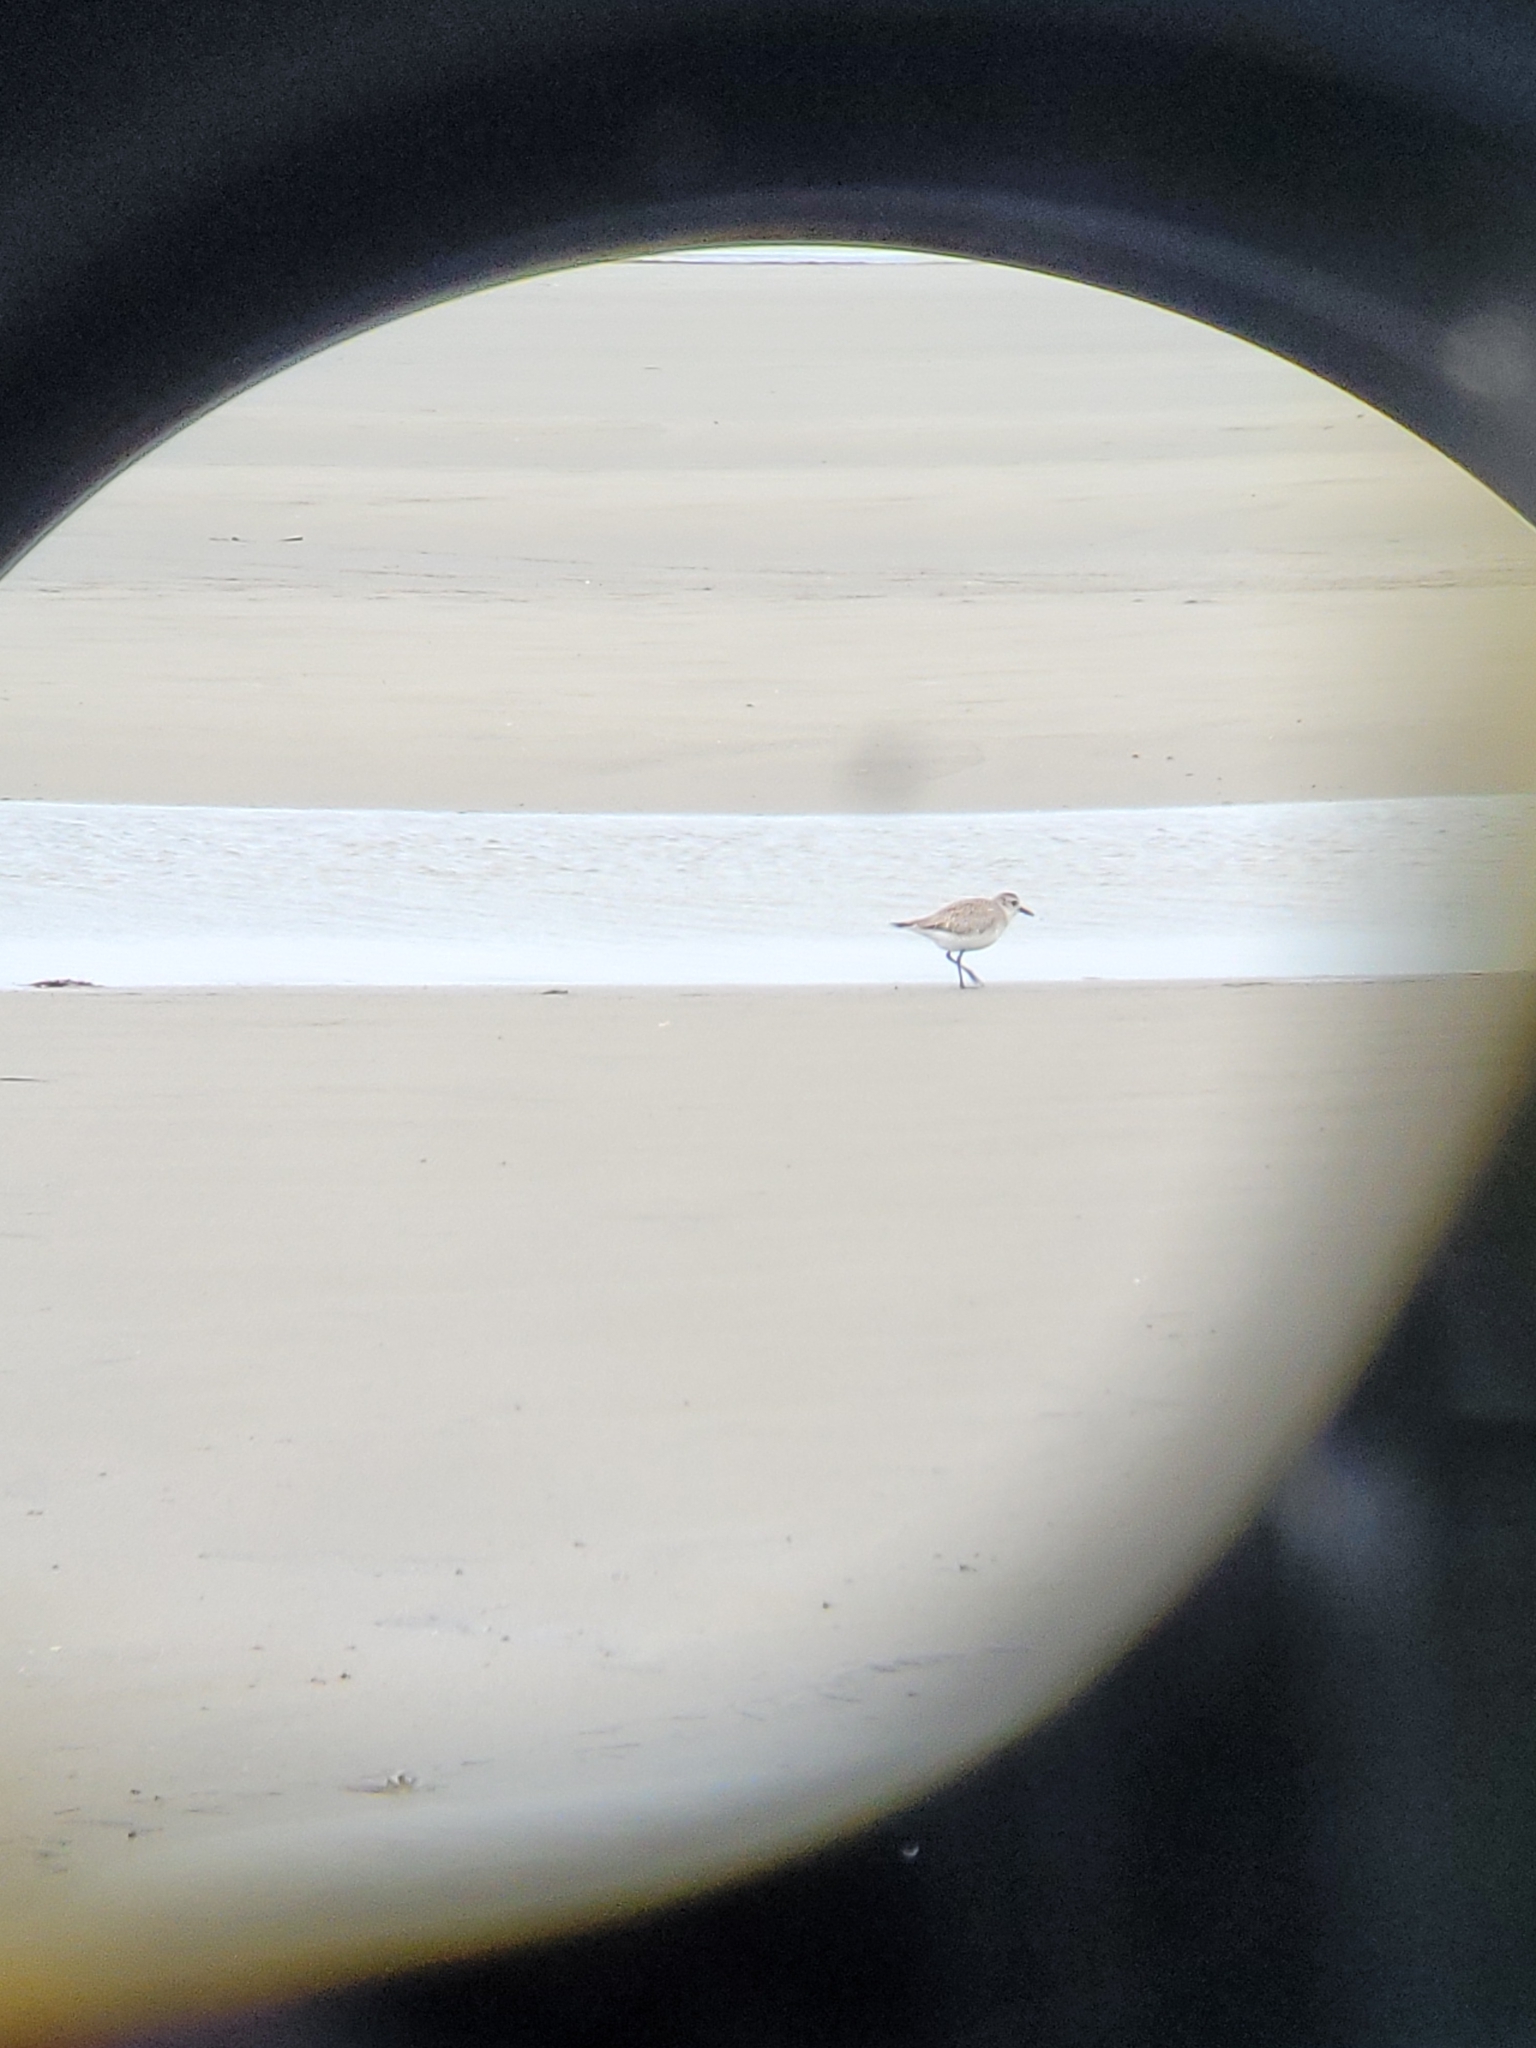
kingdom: Animalia
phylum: Chordata
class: Aves
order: Charadriiformes
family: Charadriidae
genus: Pluvialis
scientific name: Pluvialis squatarola
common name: Grey plover
